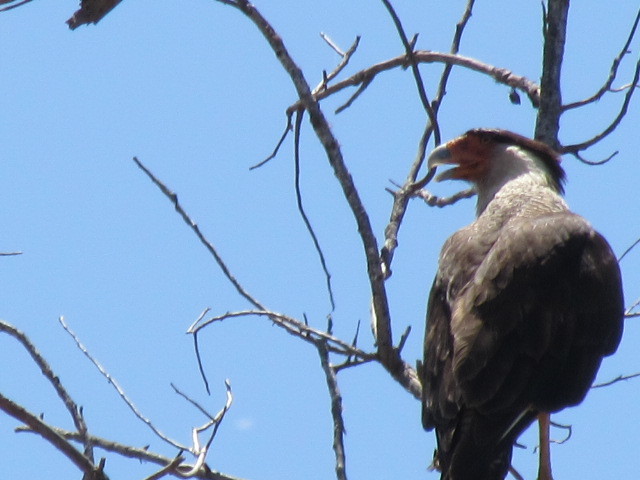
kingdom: Animalia
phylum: Chordata
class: Aves
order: Falconiformes
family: Falconidae
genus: Caracara
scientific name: Caracara plancus
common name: Southern caracara
